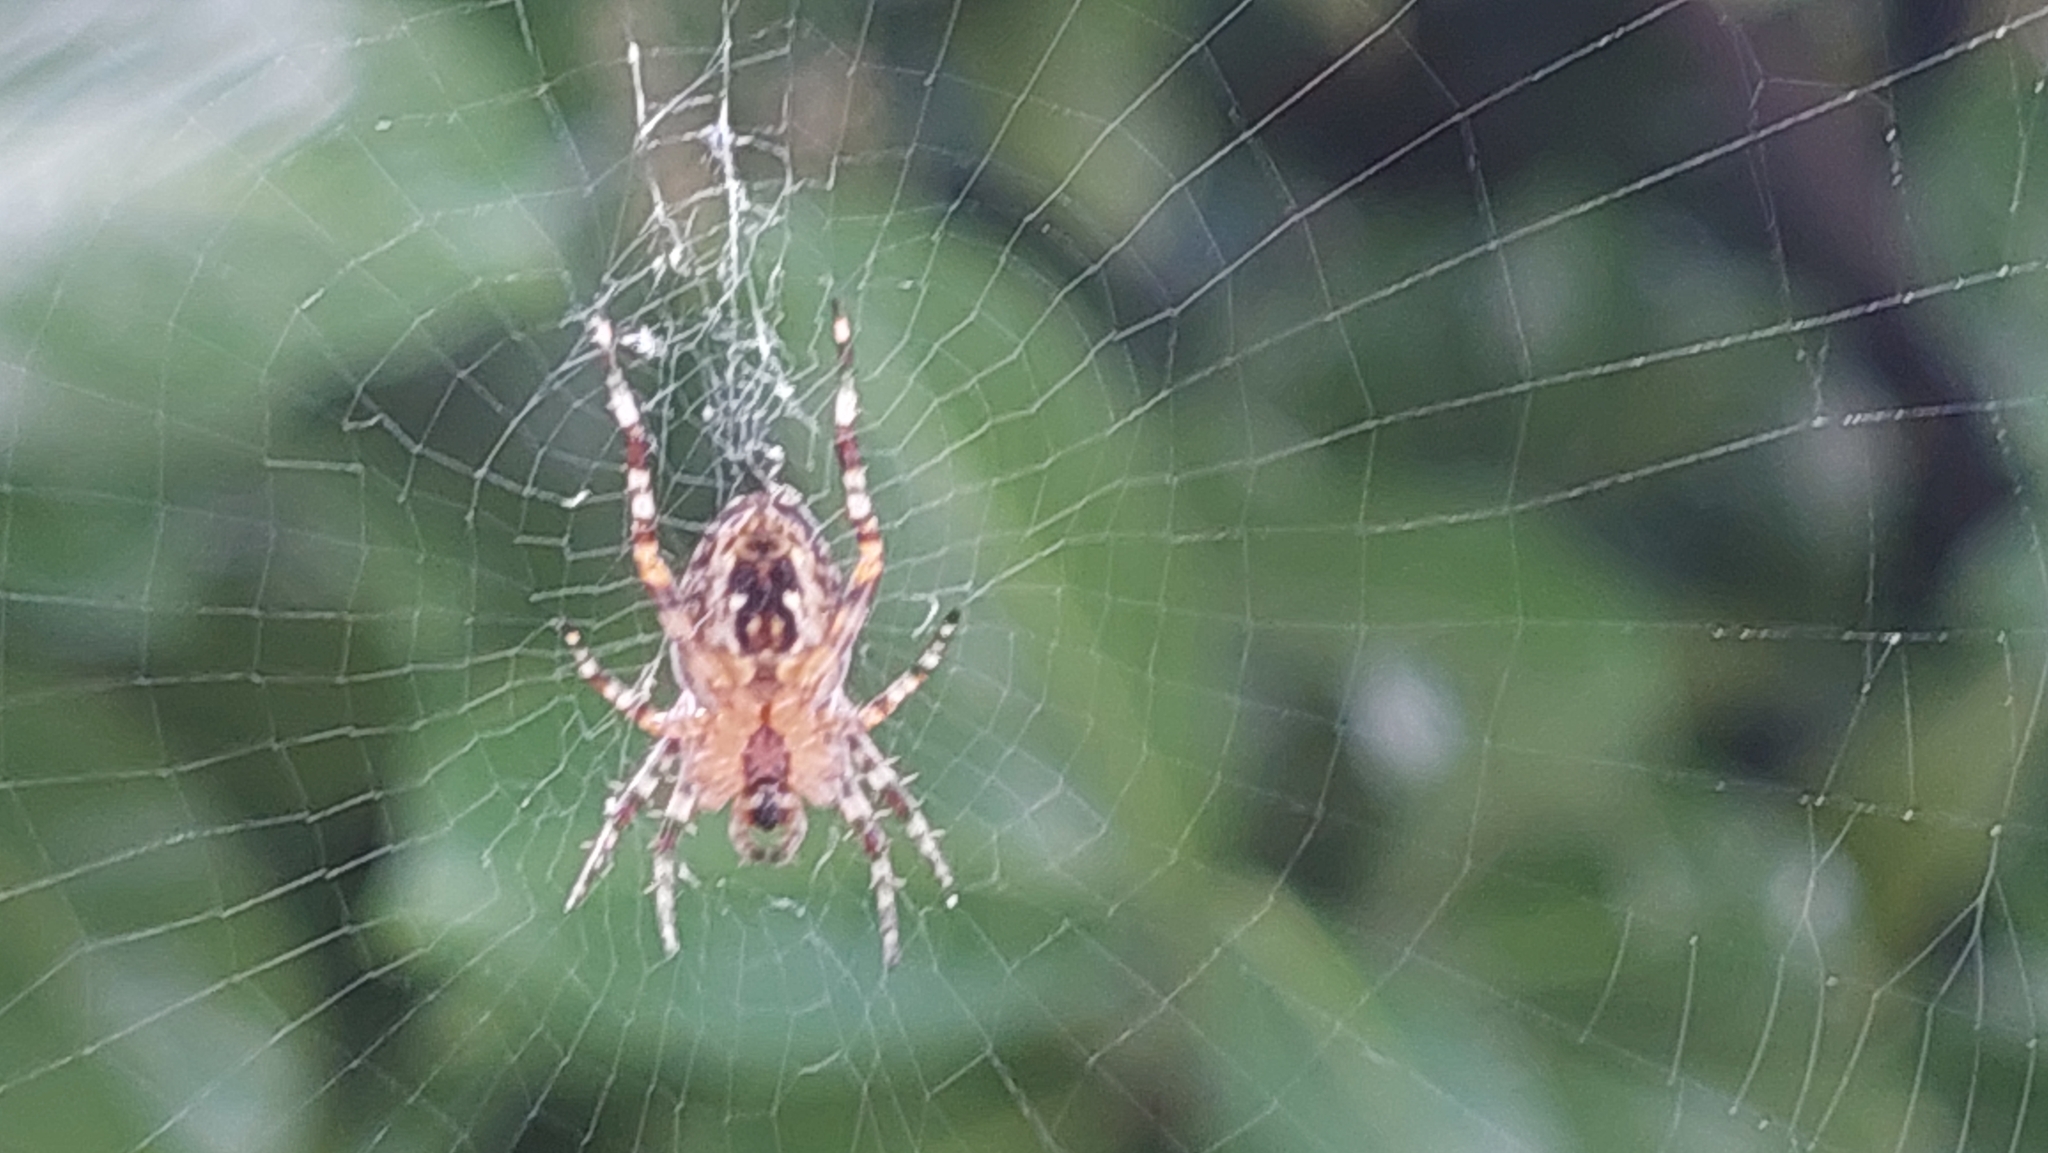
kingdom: Animalia
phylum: Arthropoda
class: Arachnida
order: Araneae
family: Araneidae
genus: Araneus
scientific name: Araneus diadematus
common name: Cross orbweaver
